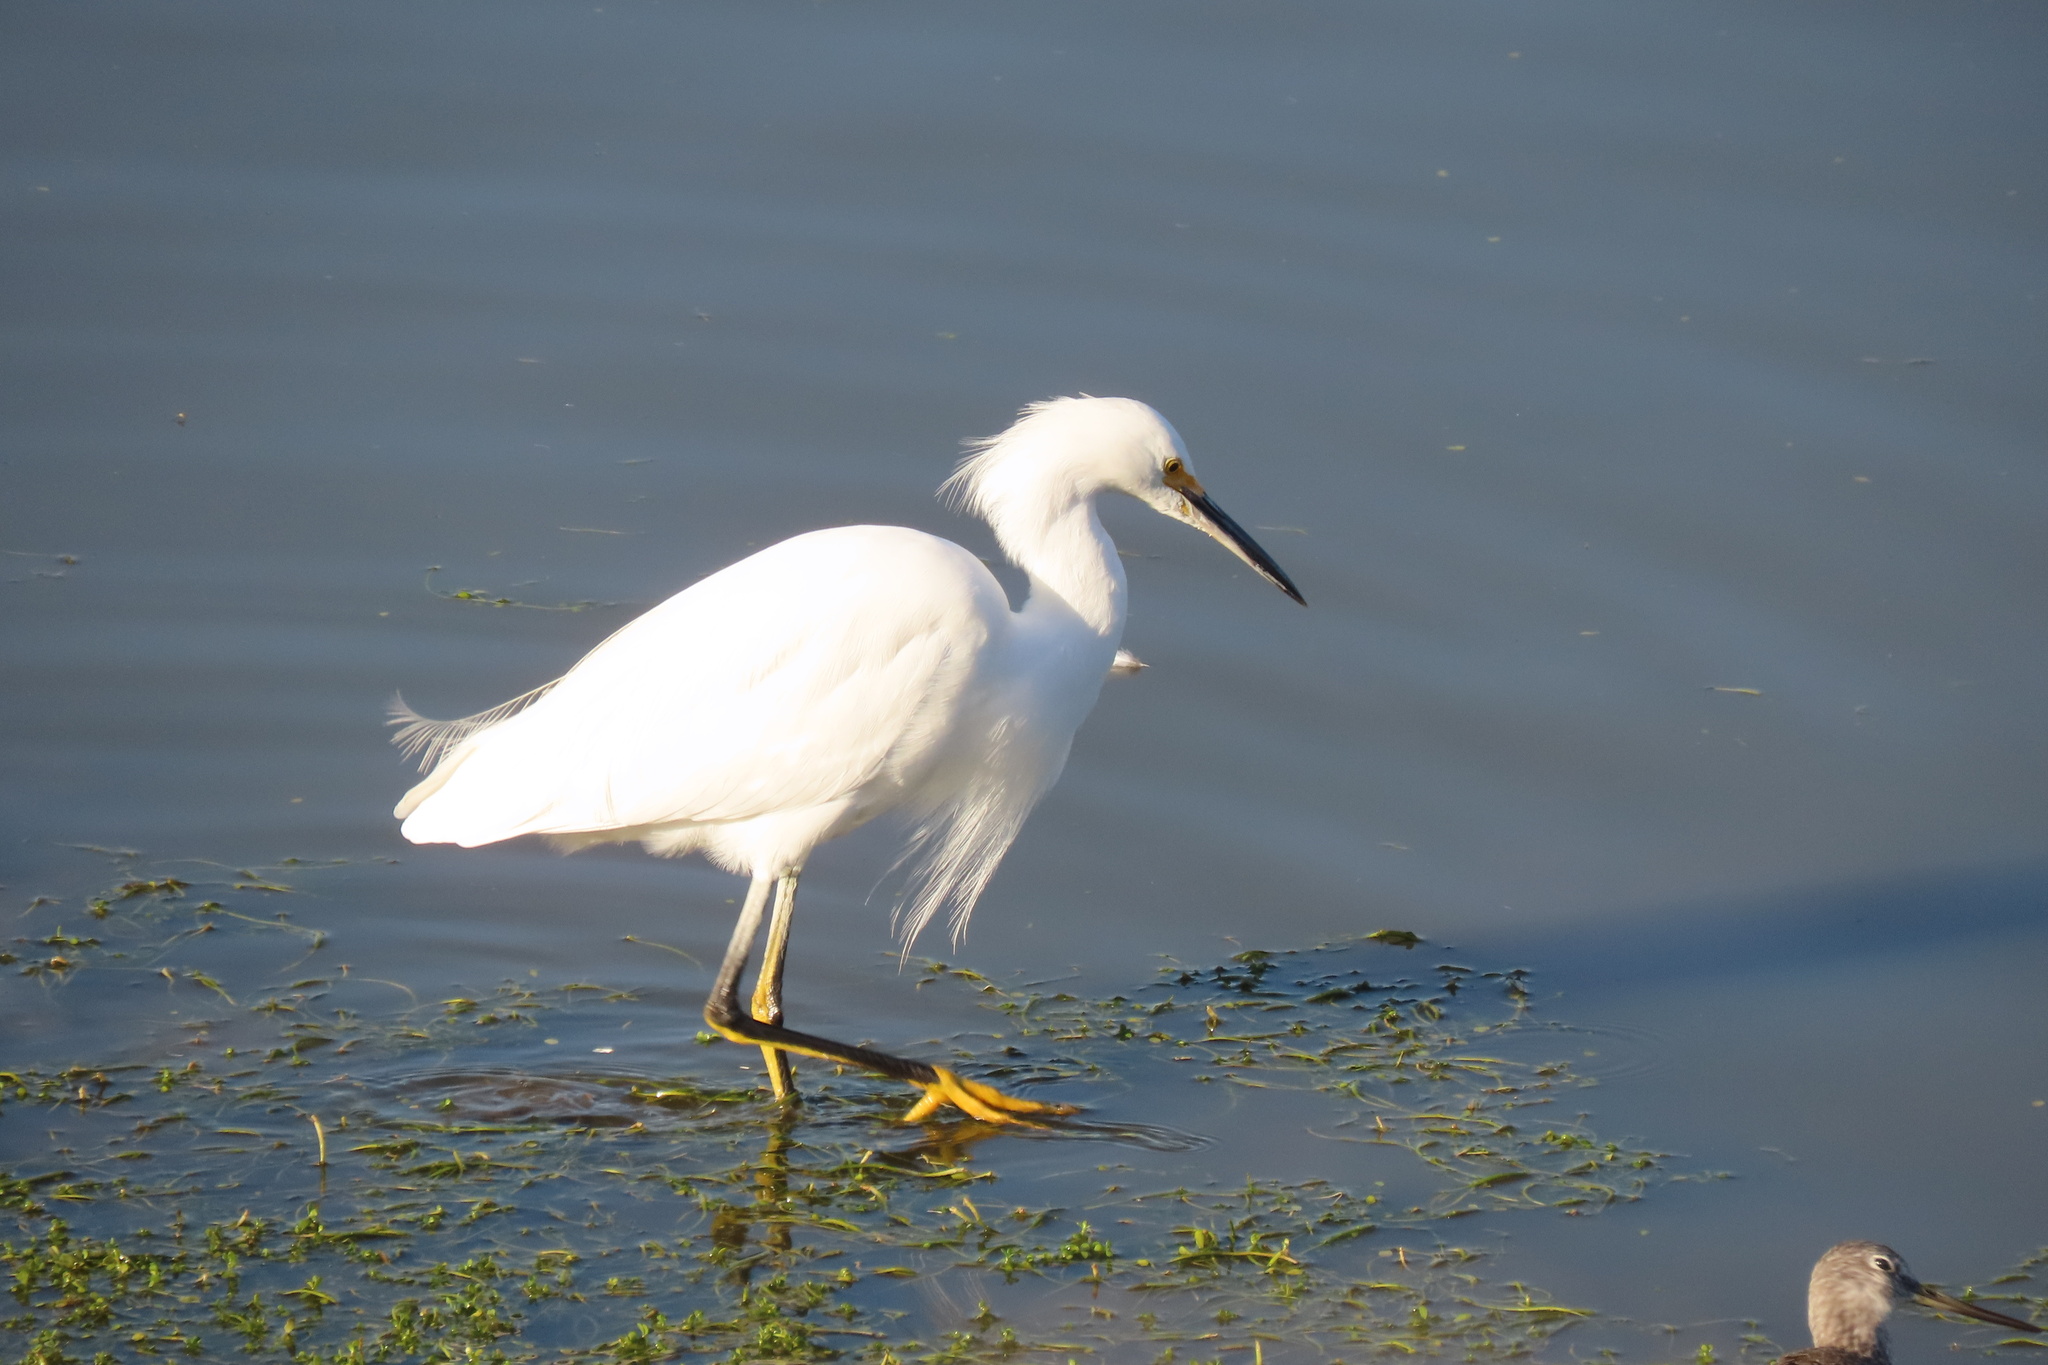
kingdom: Animalia
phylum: Chordata
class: Aves
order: Pelecaniformes
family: Ardeidae
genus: Egretta
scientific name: Egretta thula
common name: Snowy egret
